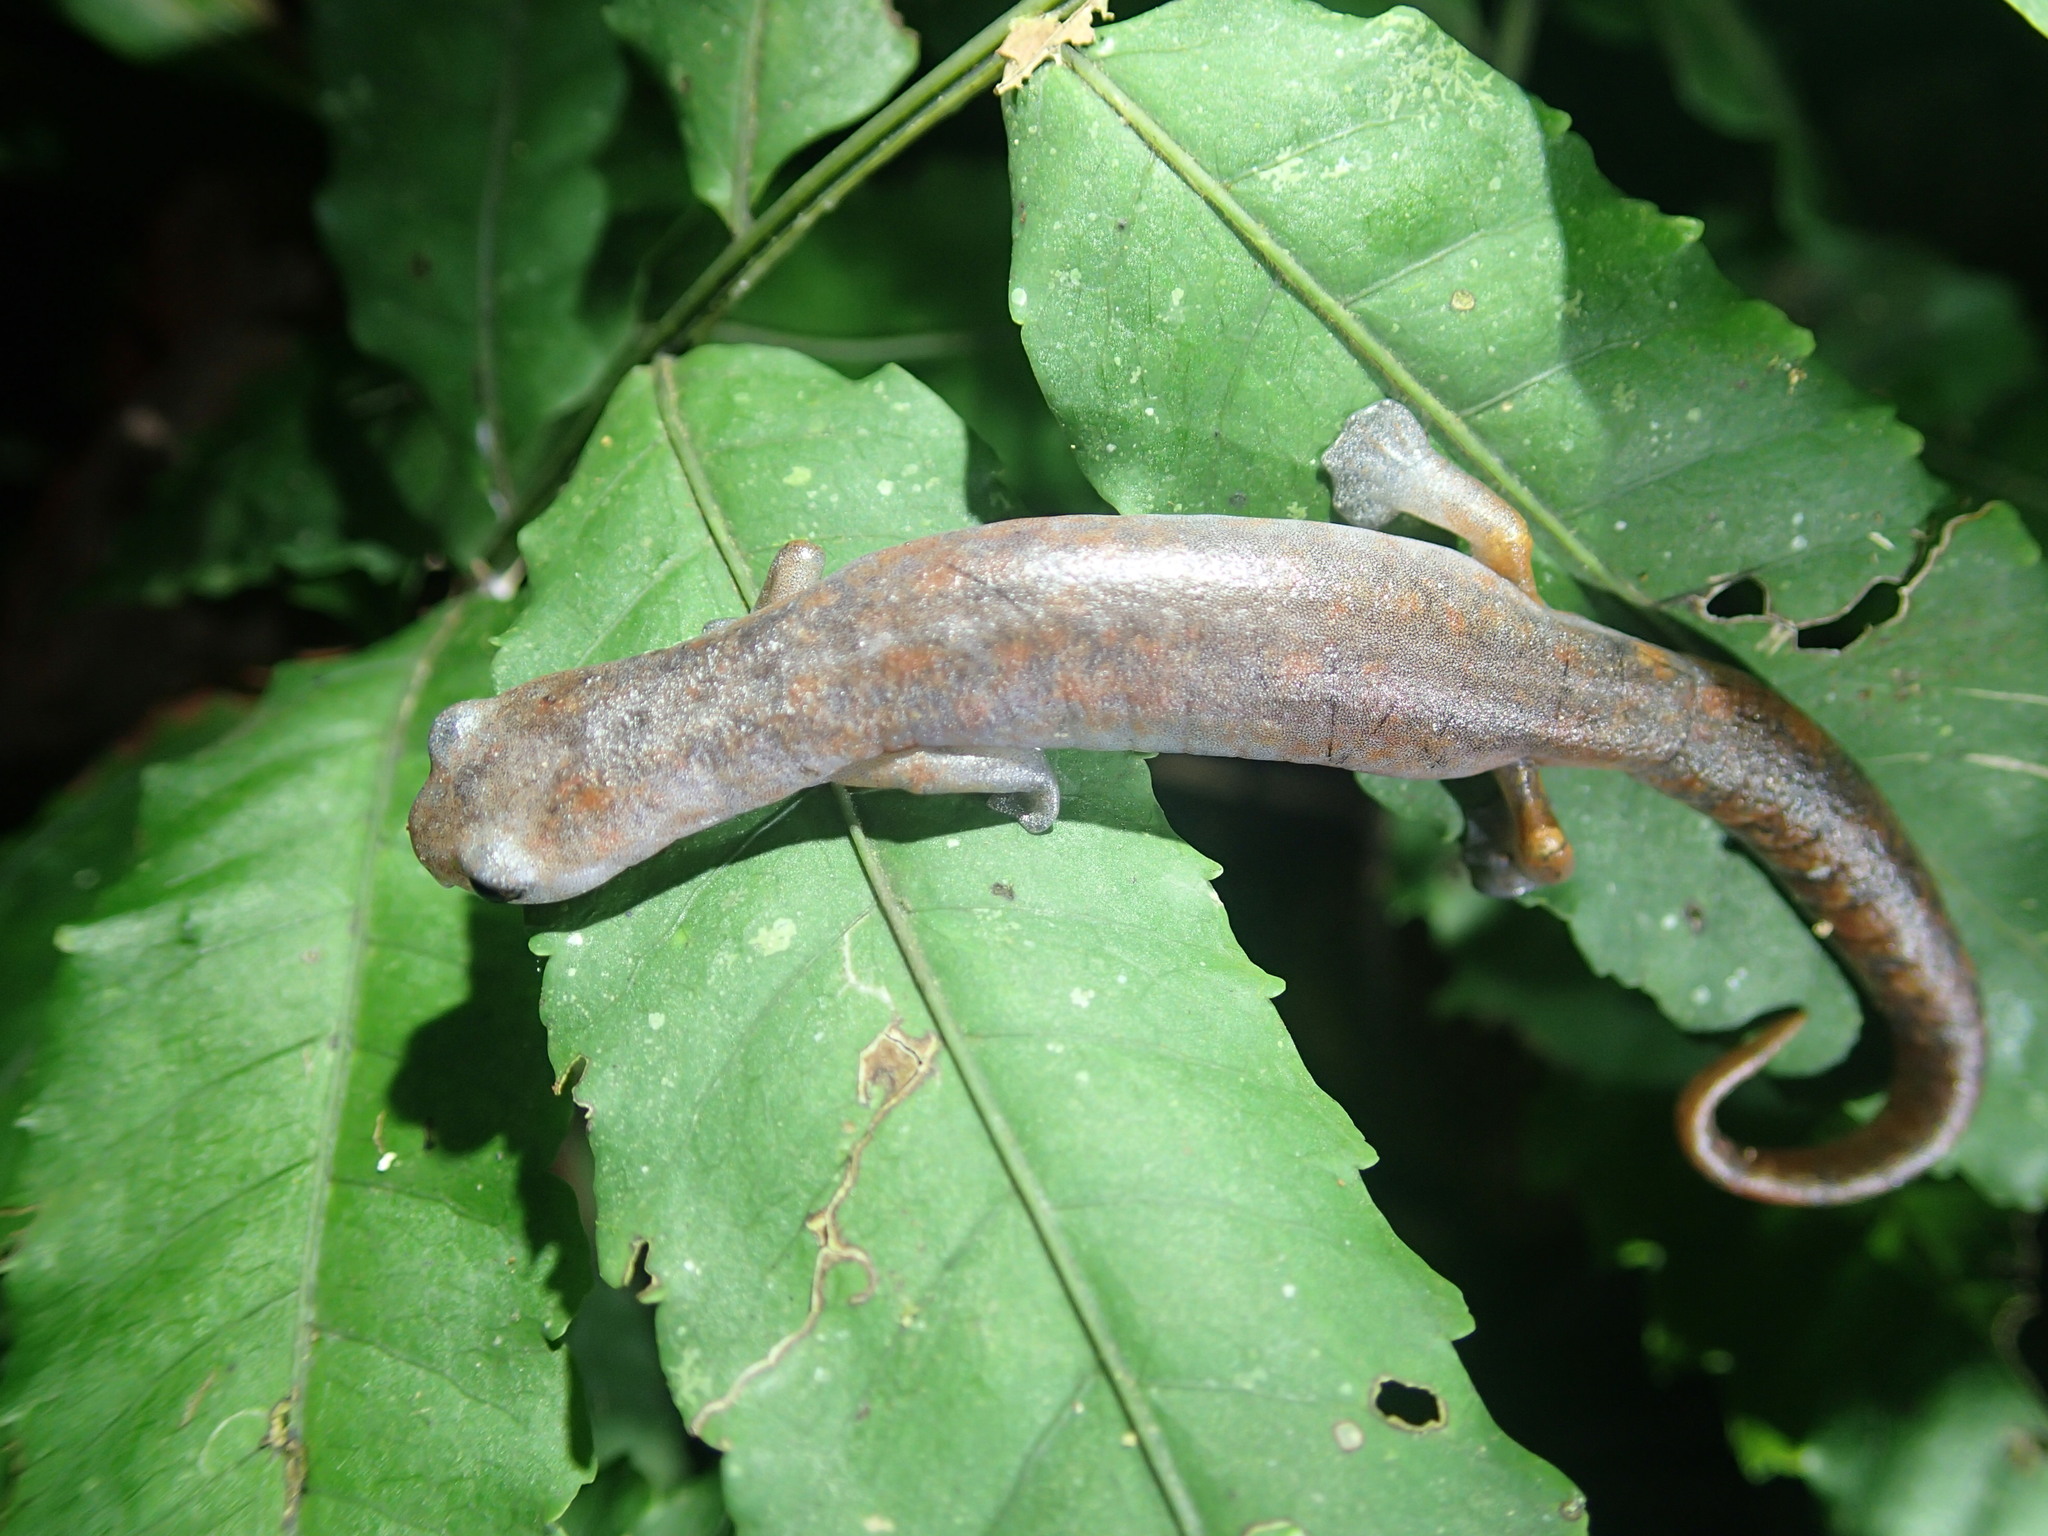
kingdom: Animalia
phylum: Chordata
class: Amphibia
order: Caudata
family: Plethodontidae
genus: Bolitoglossa
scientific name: Bolitoglossa equatoriana
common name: Ecuador mushroomtongue salamander
